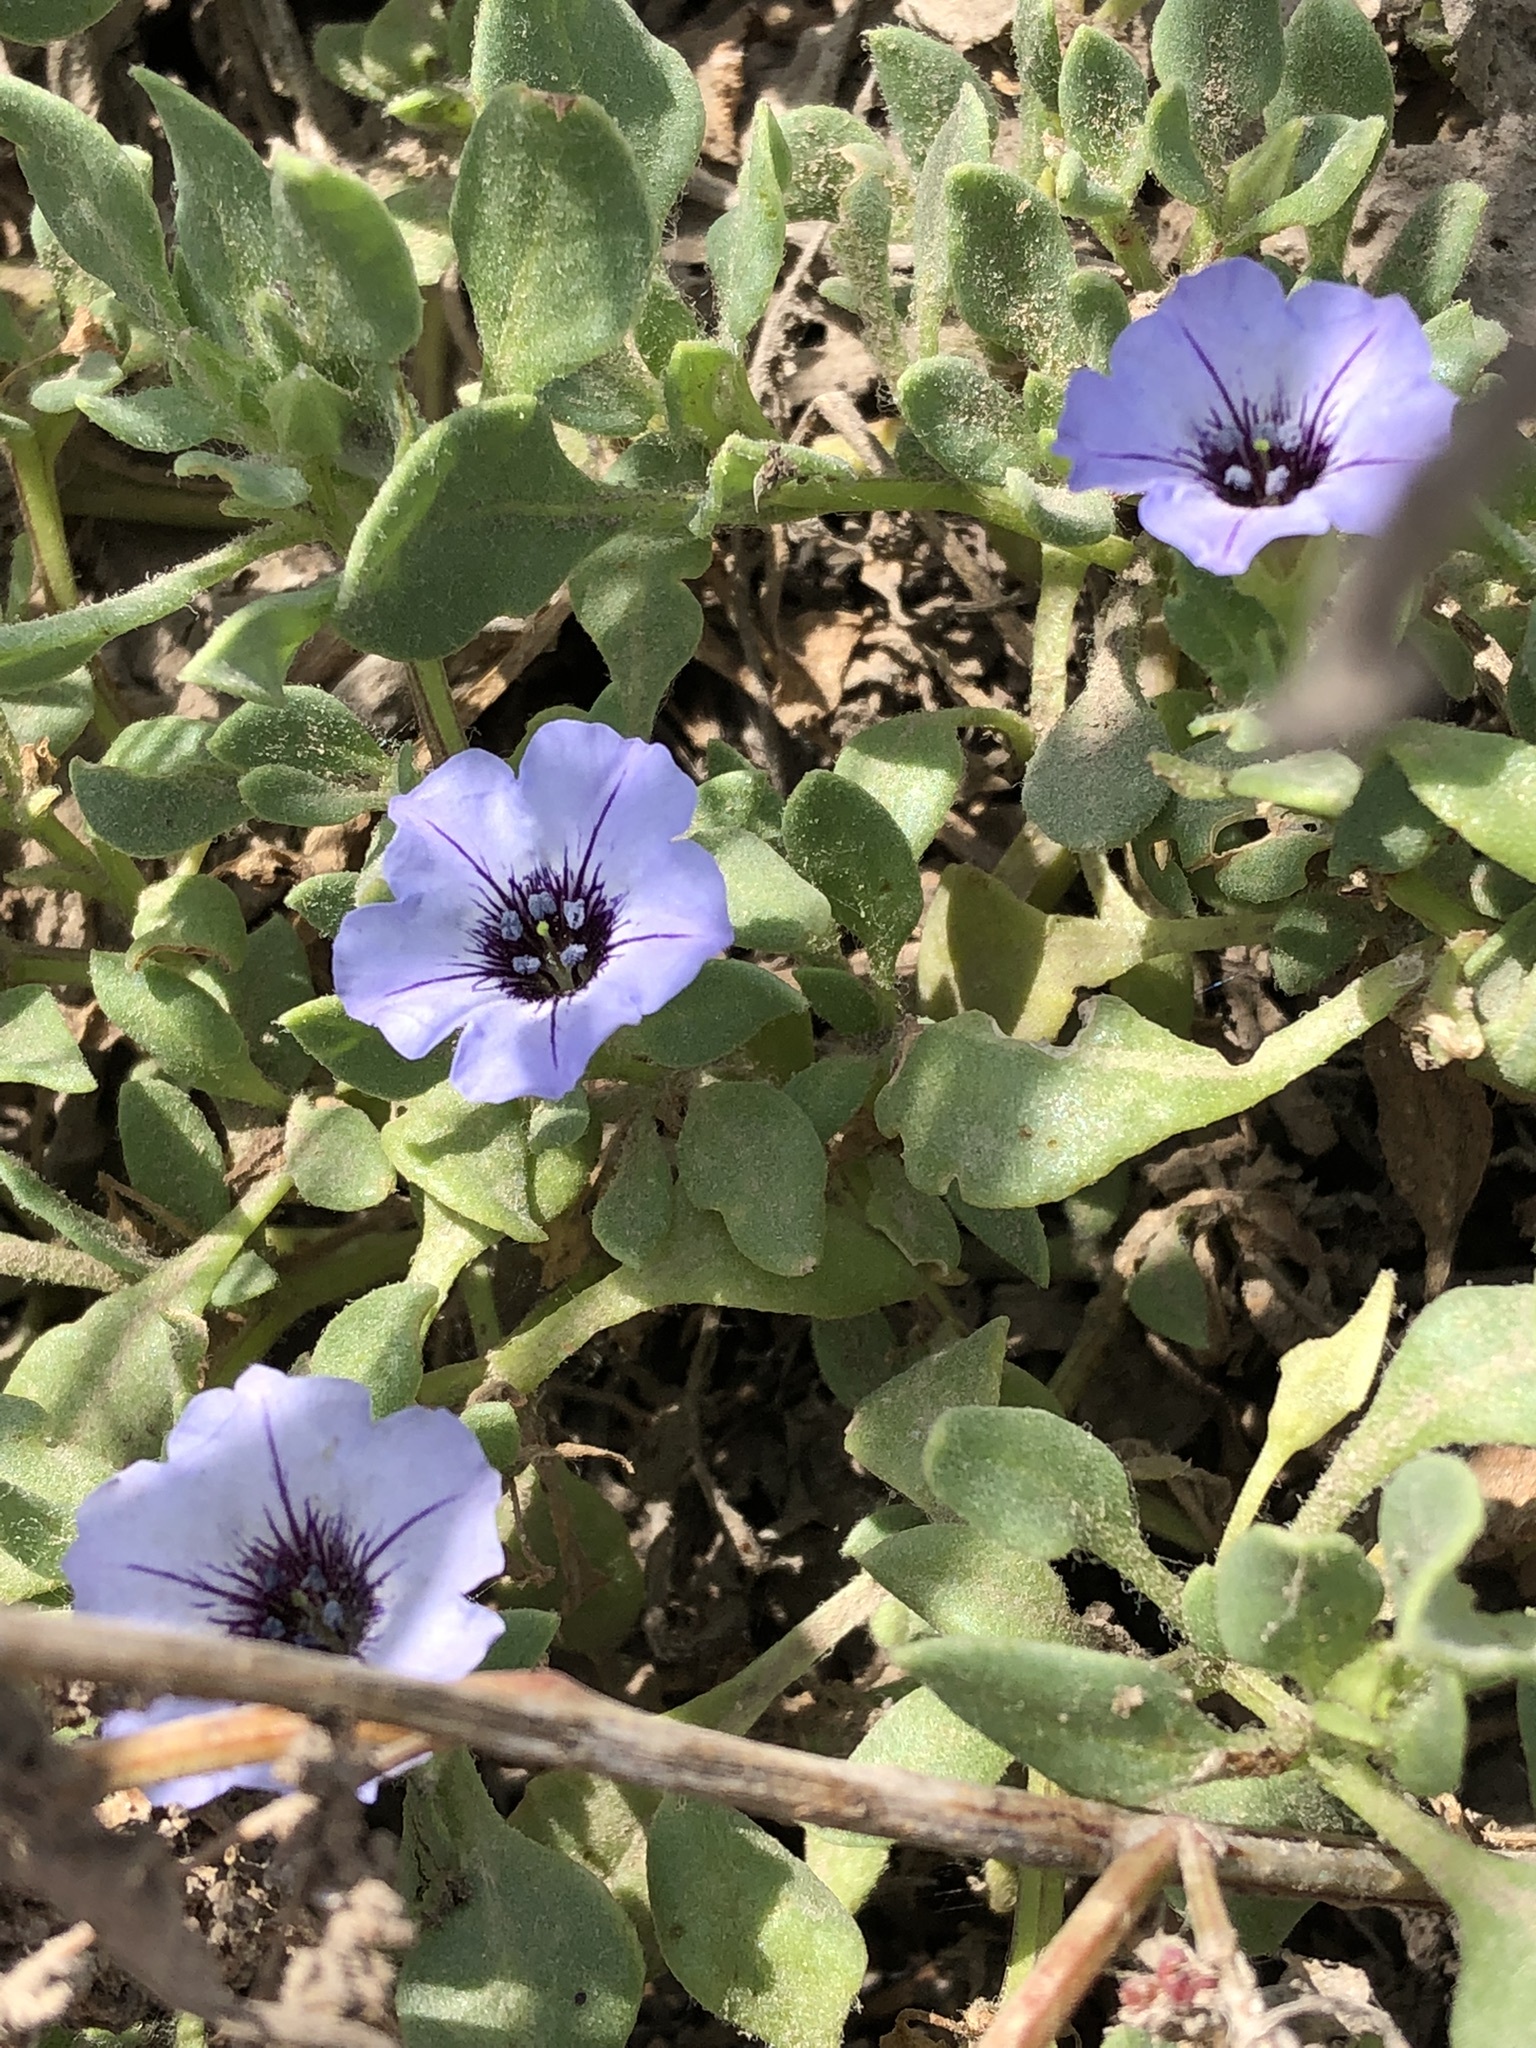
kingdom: Plantae
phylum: Tracheophyta
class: Magnoliopsida
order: Solanales
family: Solanaceae
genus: Nolana
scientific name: Nolana humifusa
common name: Trailing chilean-bellflower
